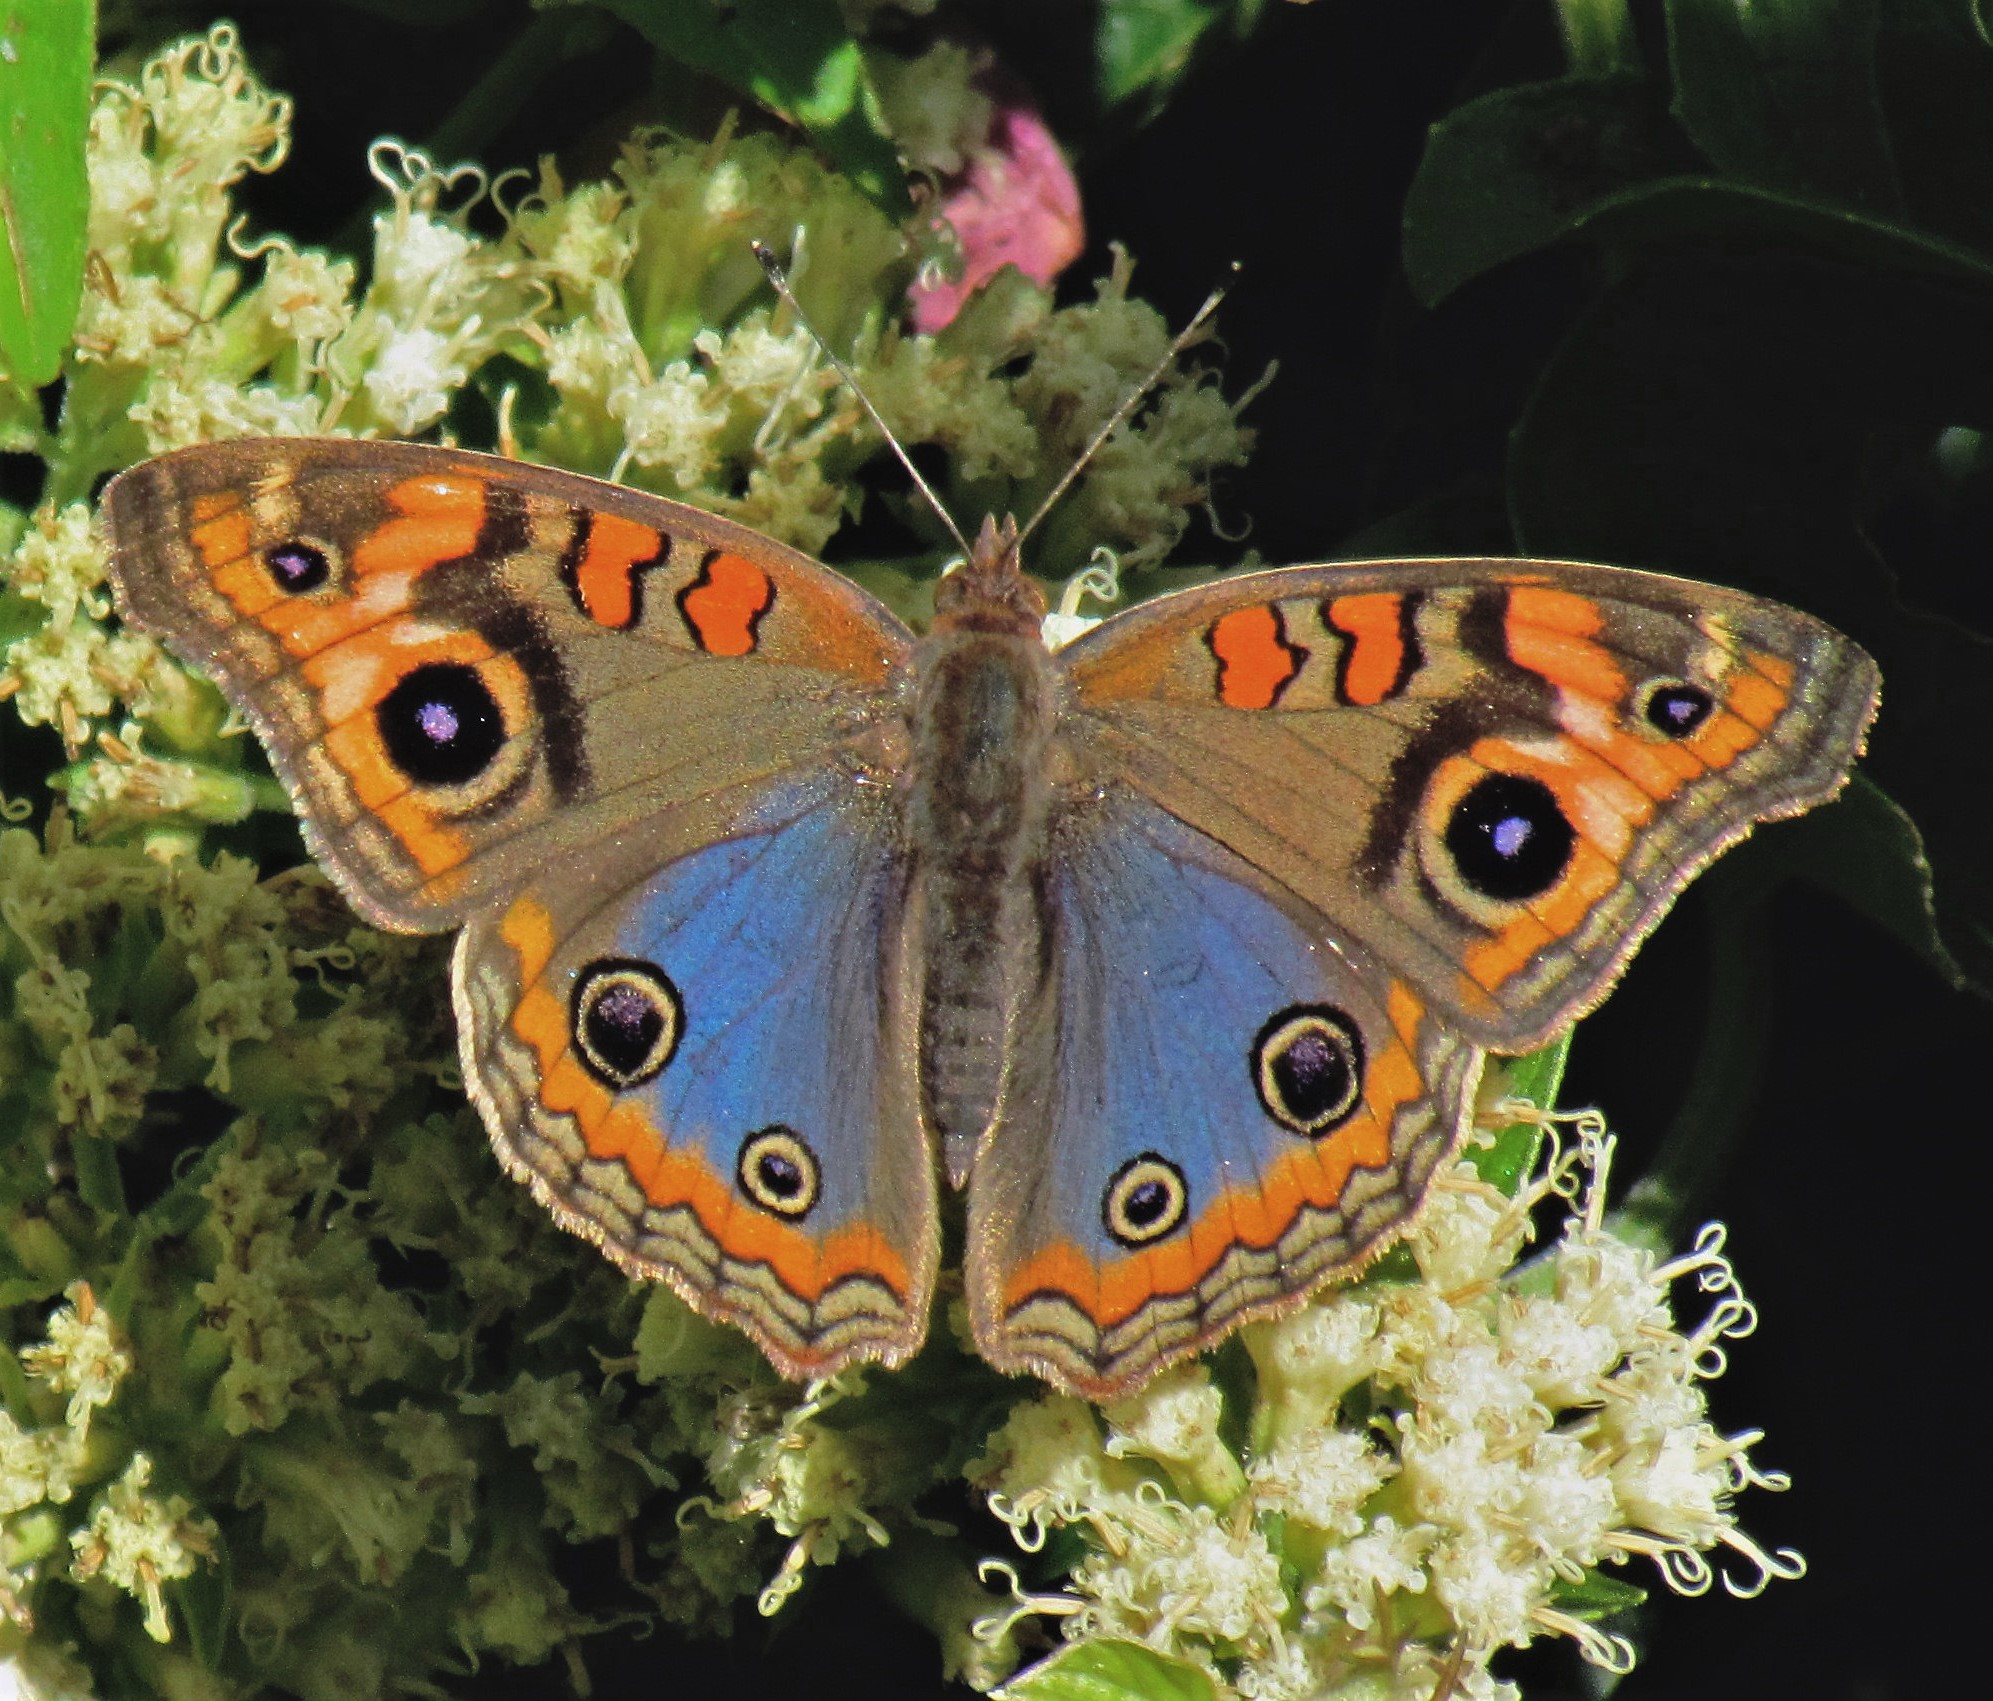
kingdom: Animalia
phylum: Arthropoda
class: Insecta
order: Lepidoptera
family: Nymphalidae
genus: Junonia
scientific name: Junonia lavinia
